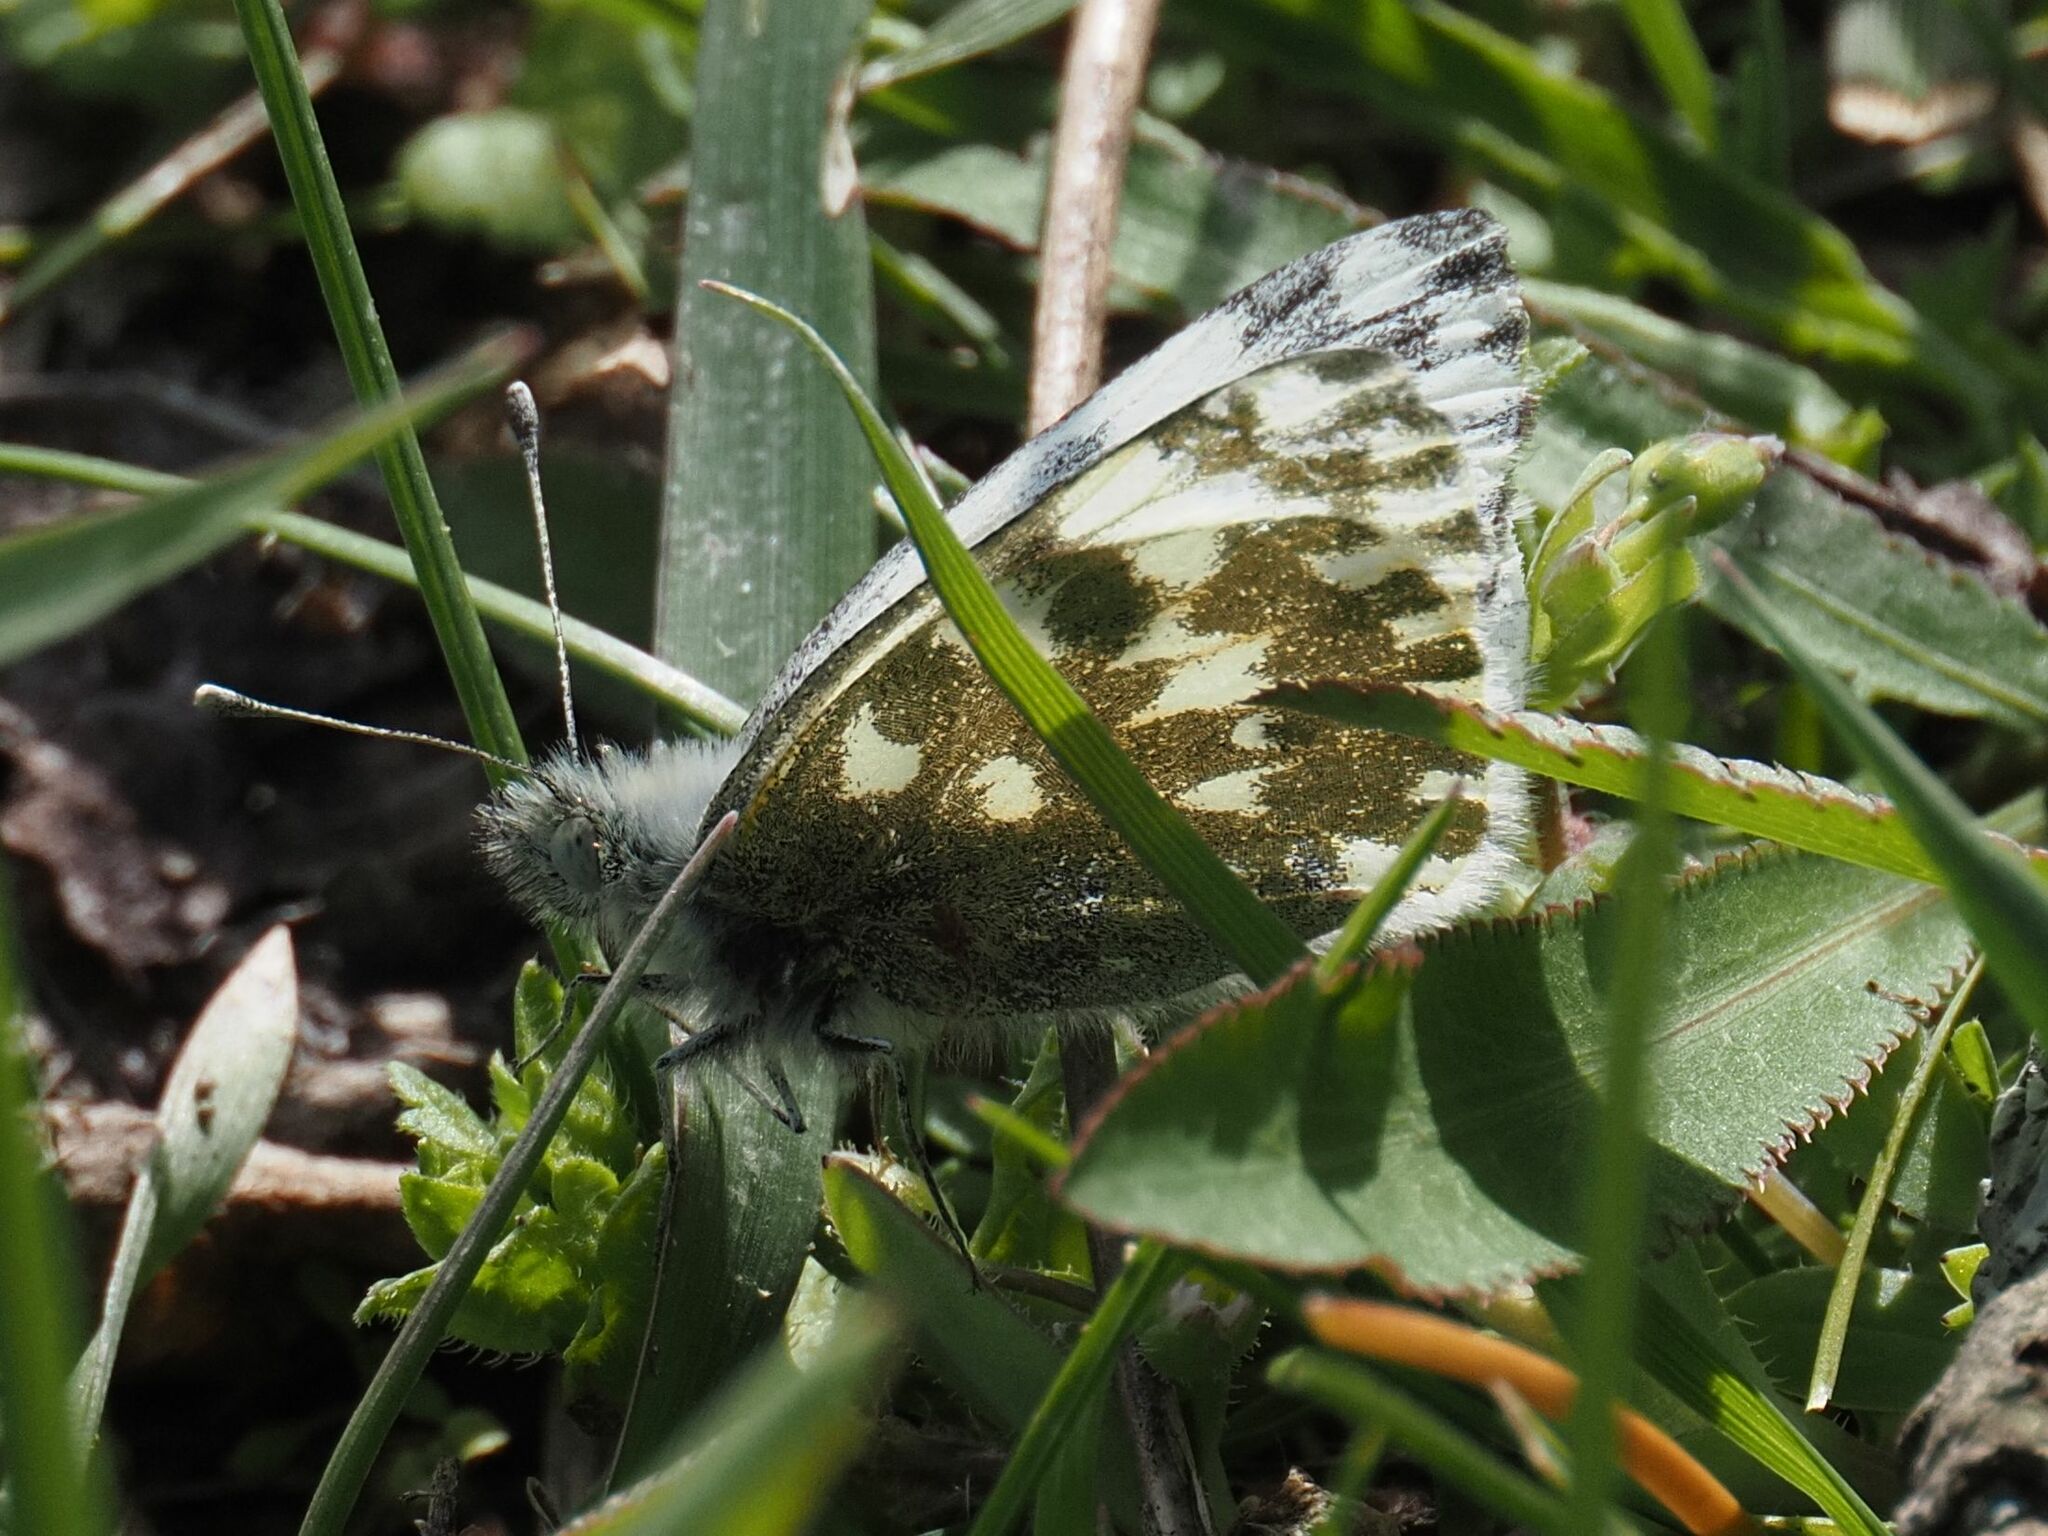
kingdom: Animalia
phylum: Arthropoda
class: Insecta
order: Lepidoptera
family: Pieridae
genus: Pontia
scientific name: Pontia edusa
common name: Eastern bath white
